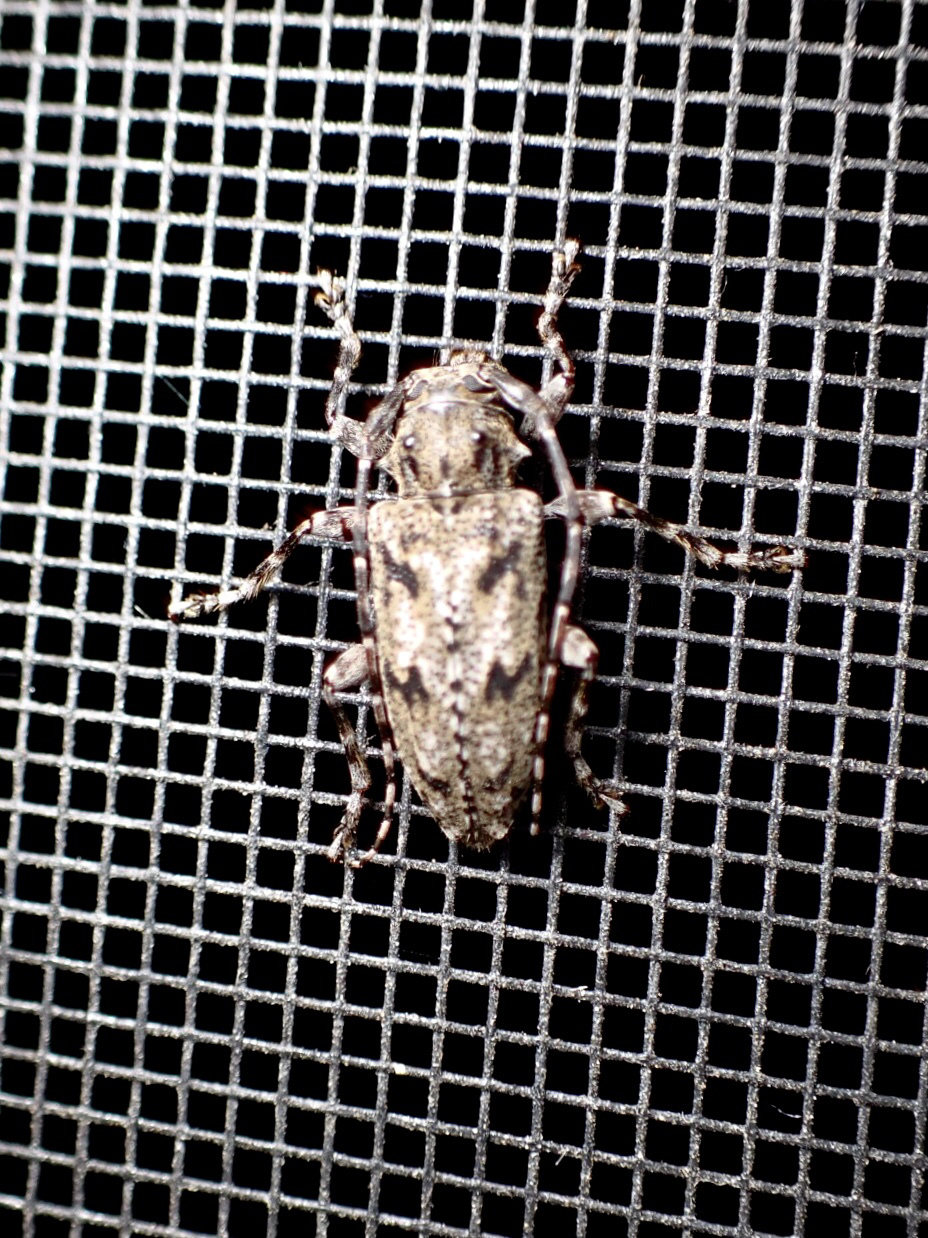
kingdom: Animalia
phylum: Arthropoda
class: Insecta
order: Coleoptera
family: Cerambycidae
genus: Aegomorphus
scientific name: Aegomorphus modestus
